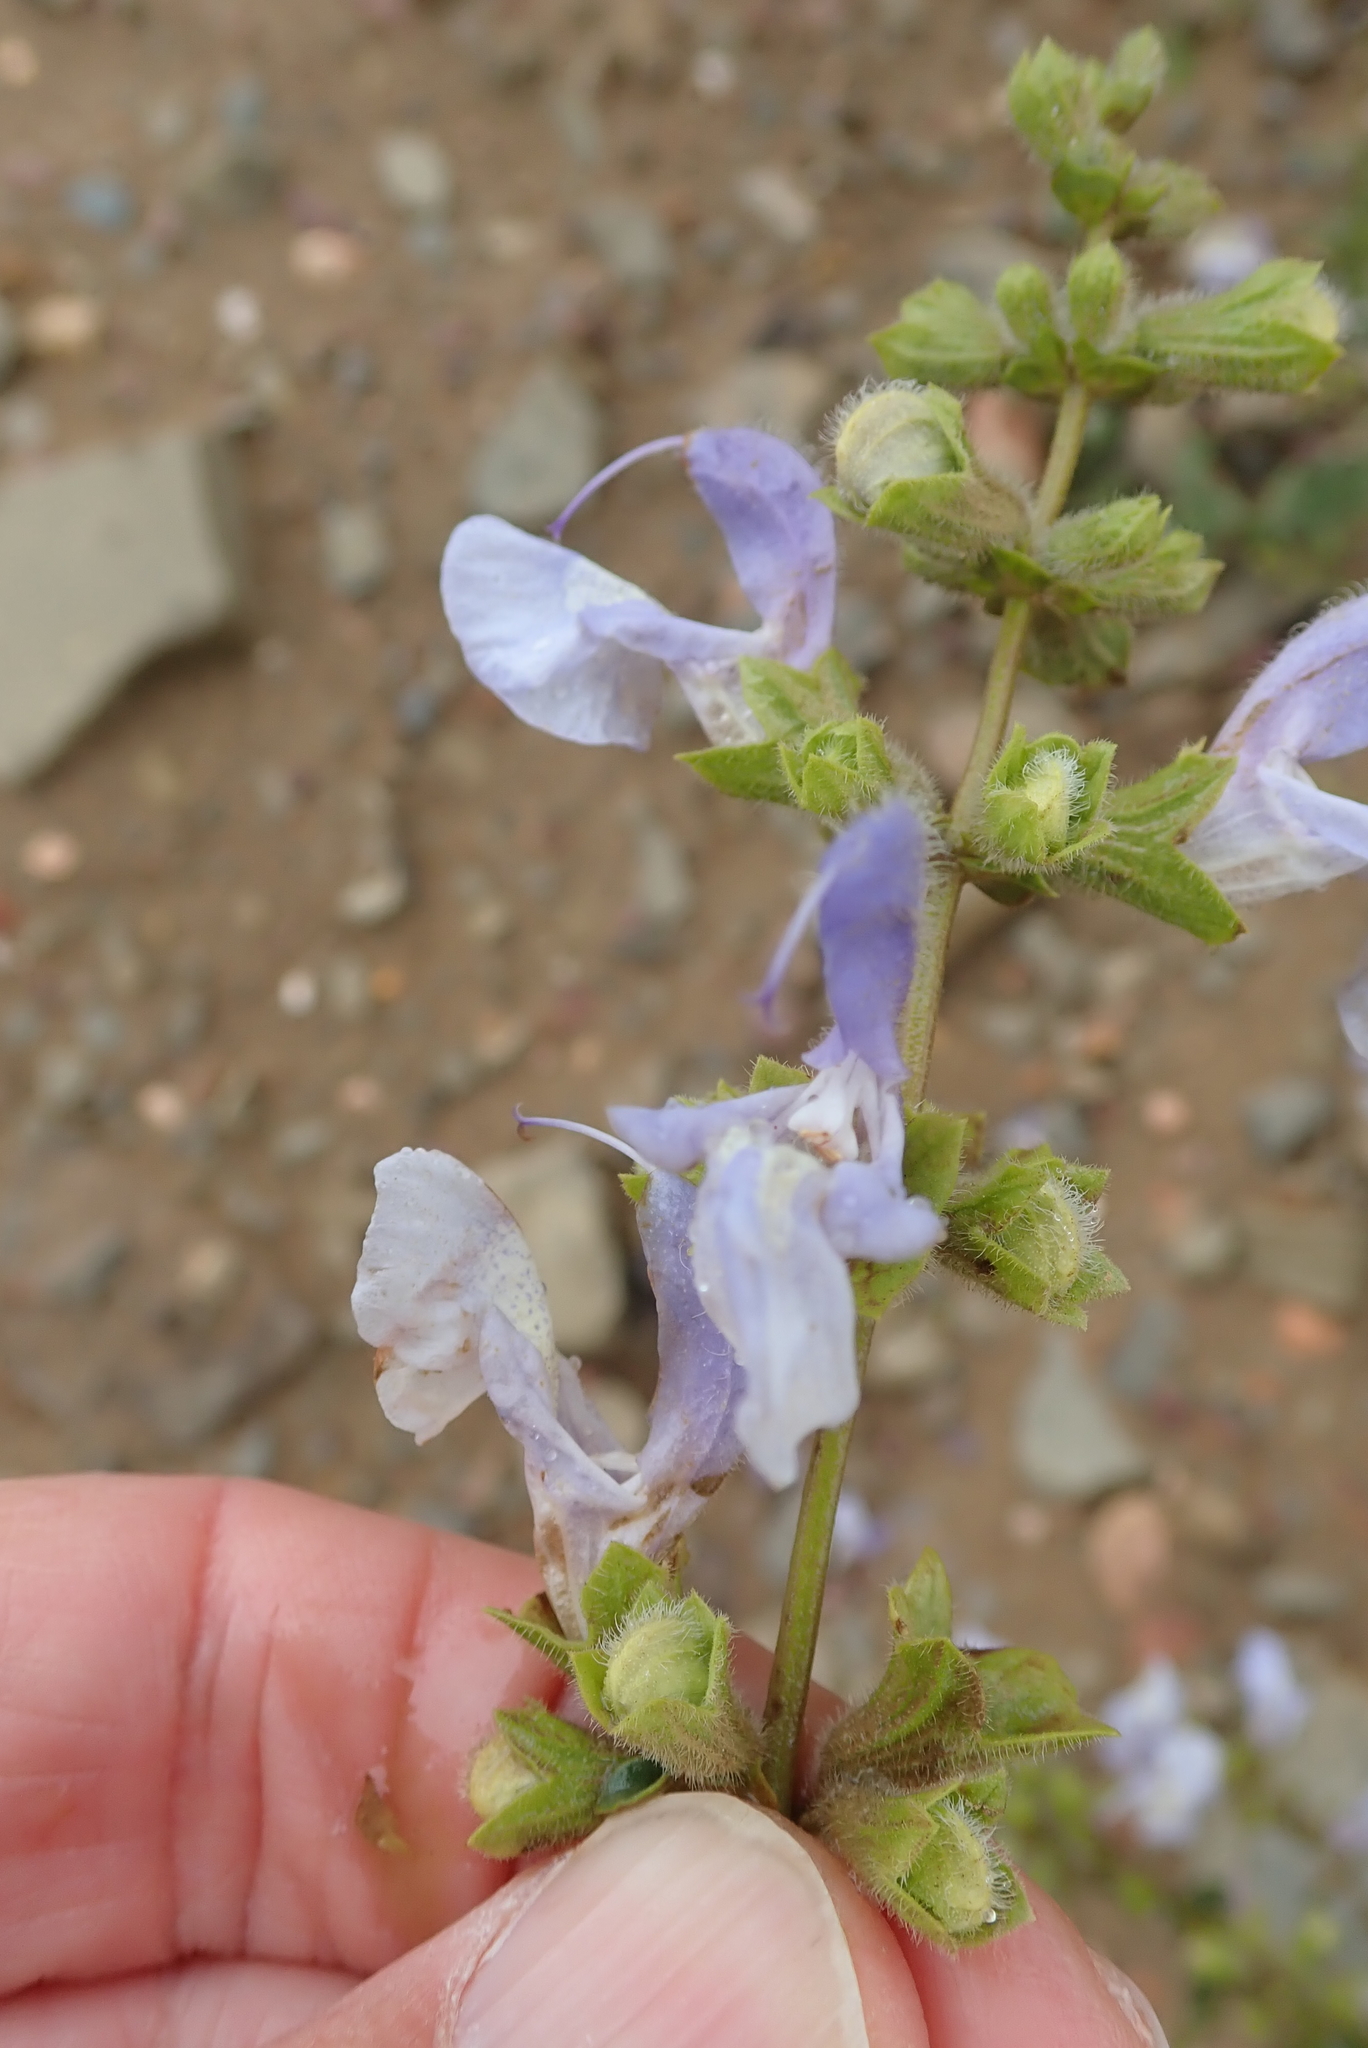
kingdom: Plantae
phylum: Tracheophyta
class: Magnoliopsida
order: Lamiales
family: Lamiaceae
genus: Salvia
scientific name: Salvia africana
